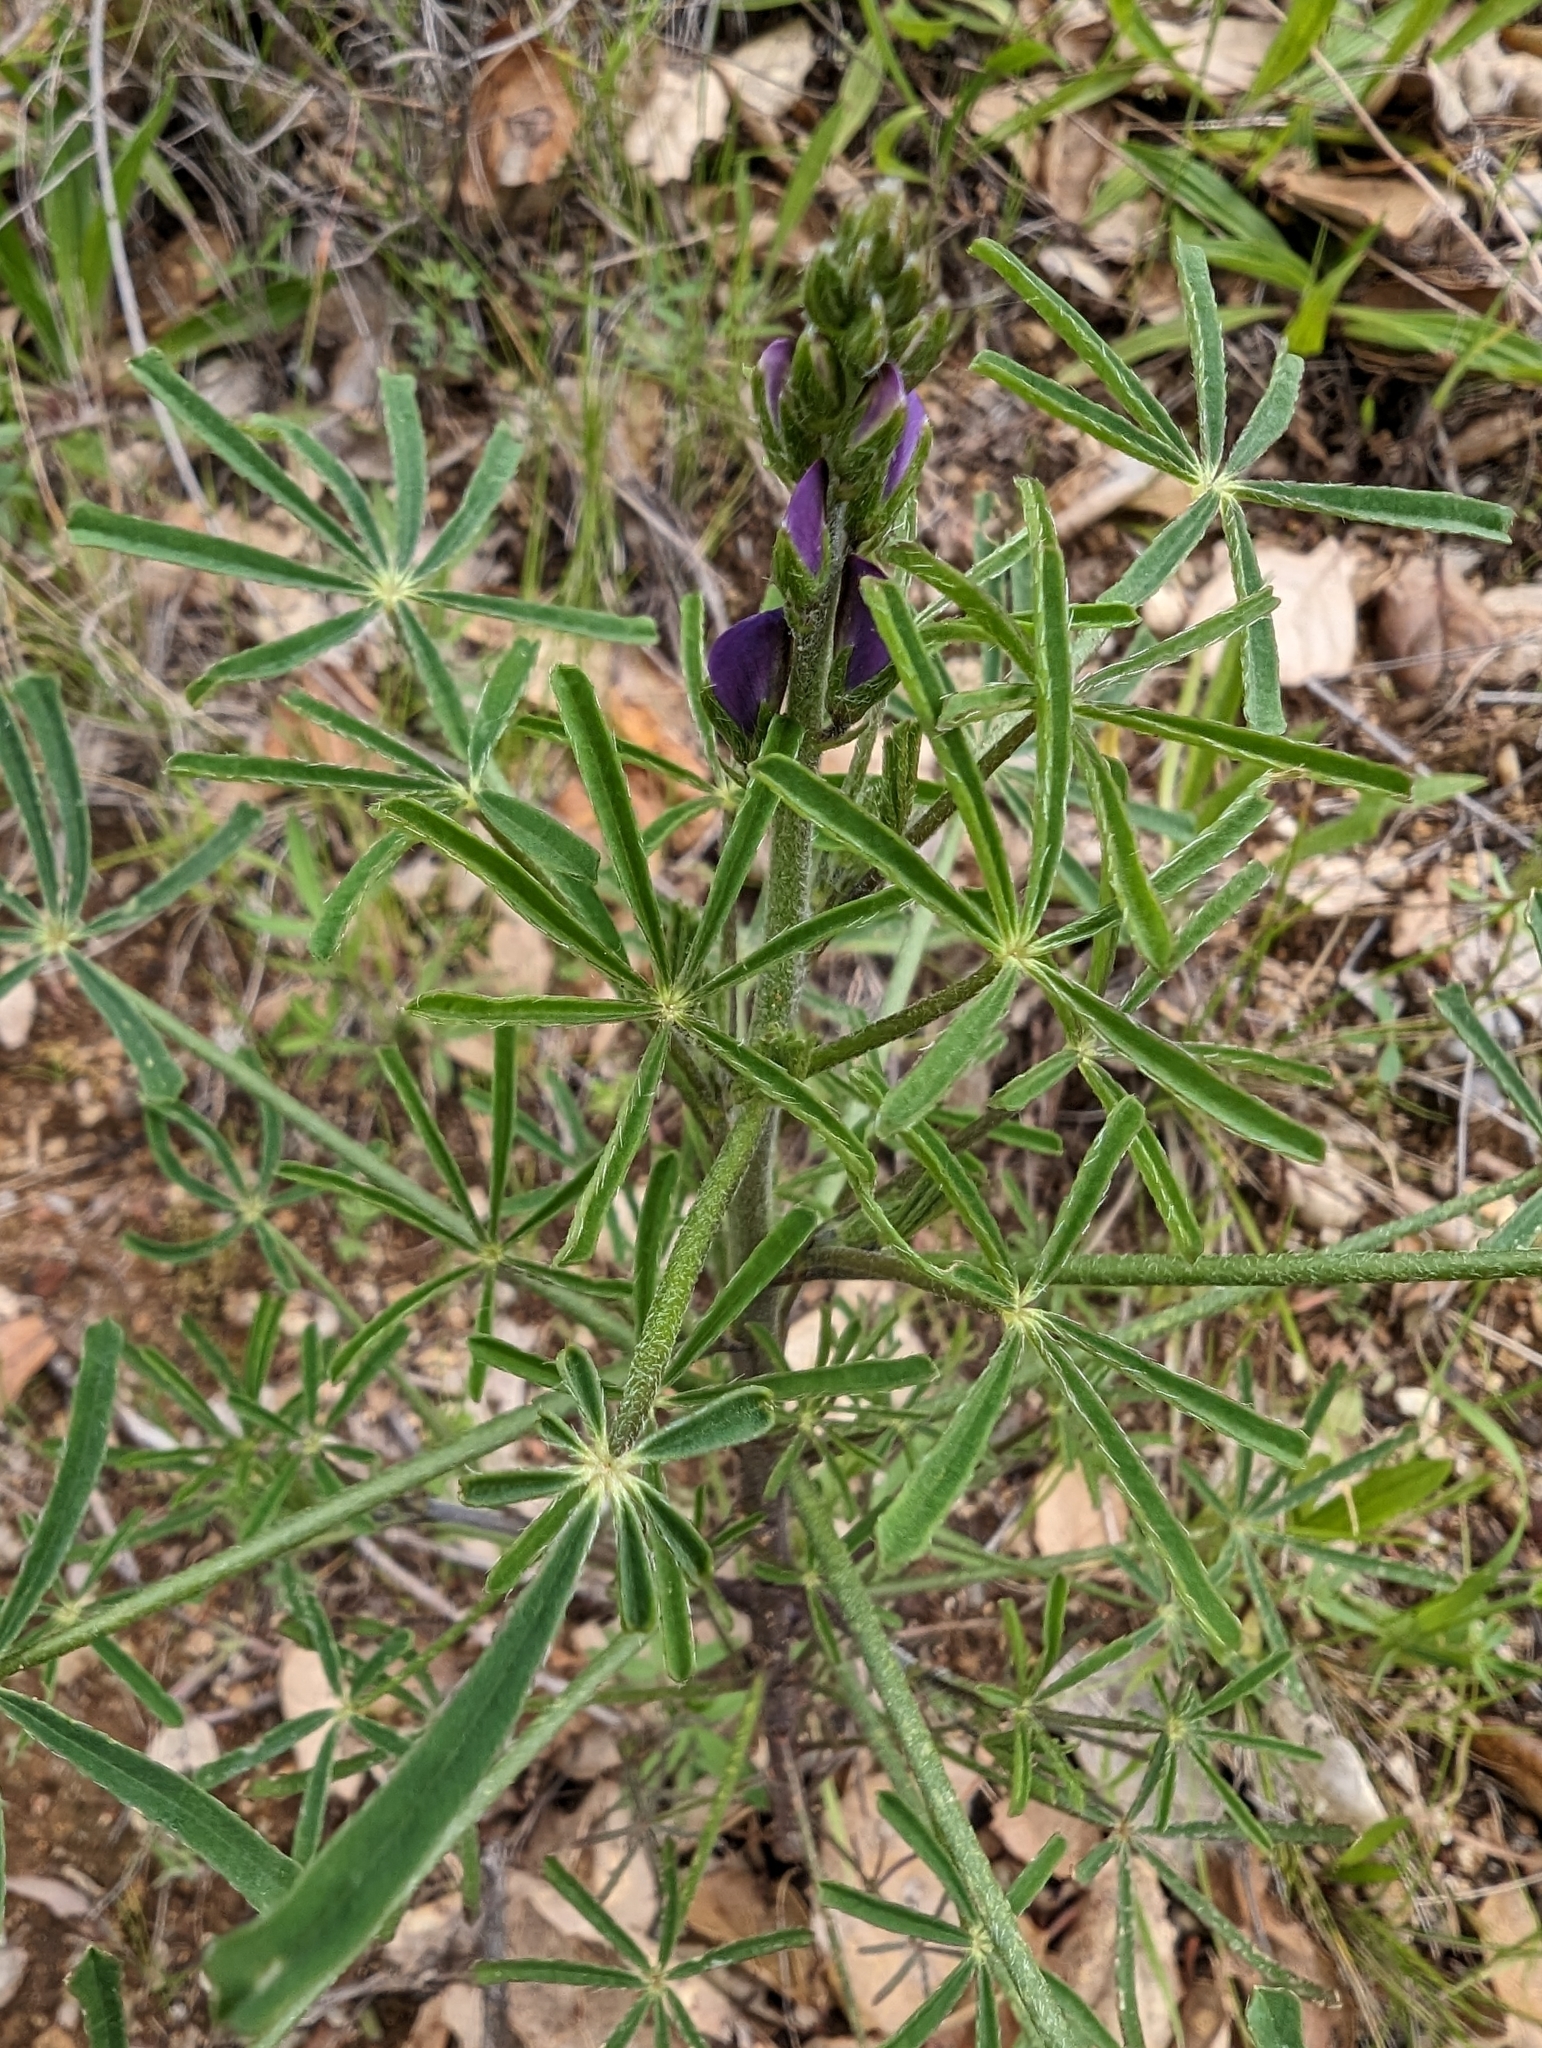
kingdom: Plantae
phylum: Tracheophyta
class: Magnoliopsida
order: Fabales
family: Fabaceae
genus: Lupinus
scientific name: Lupinus truncatus
